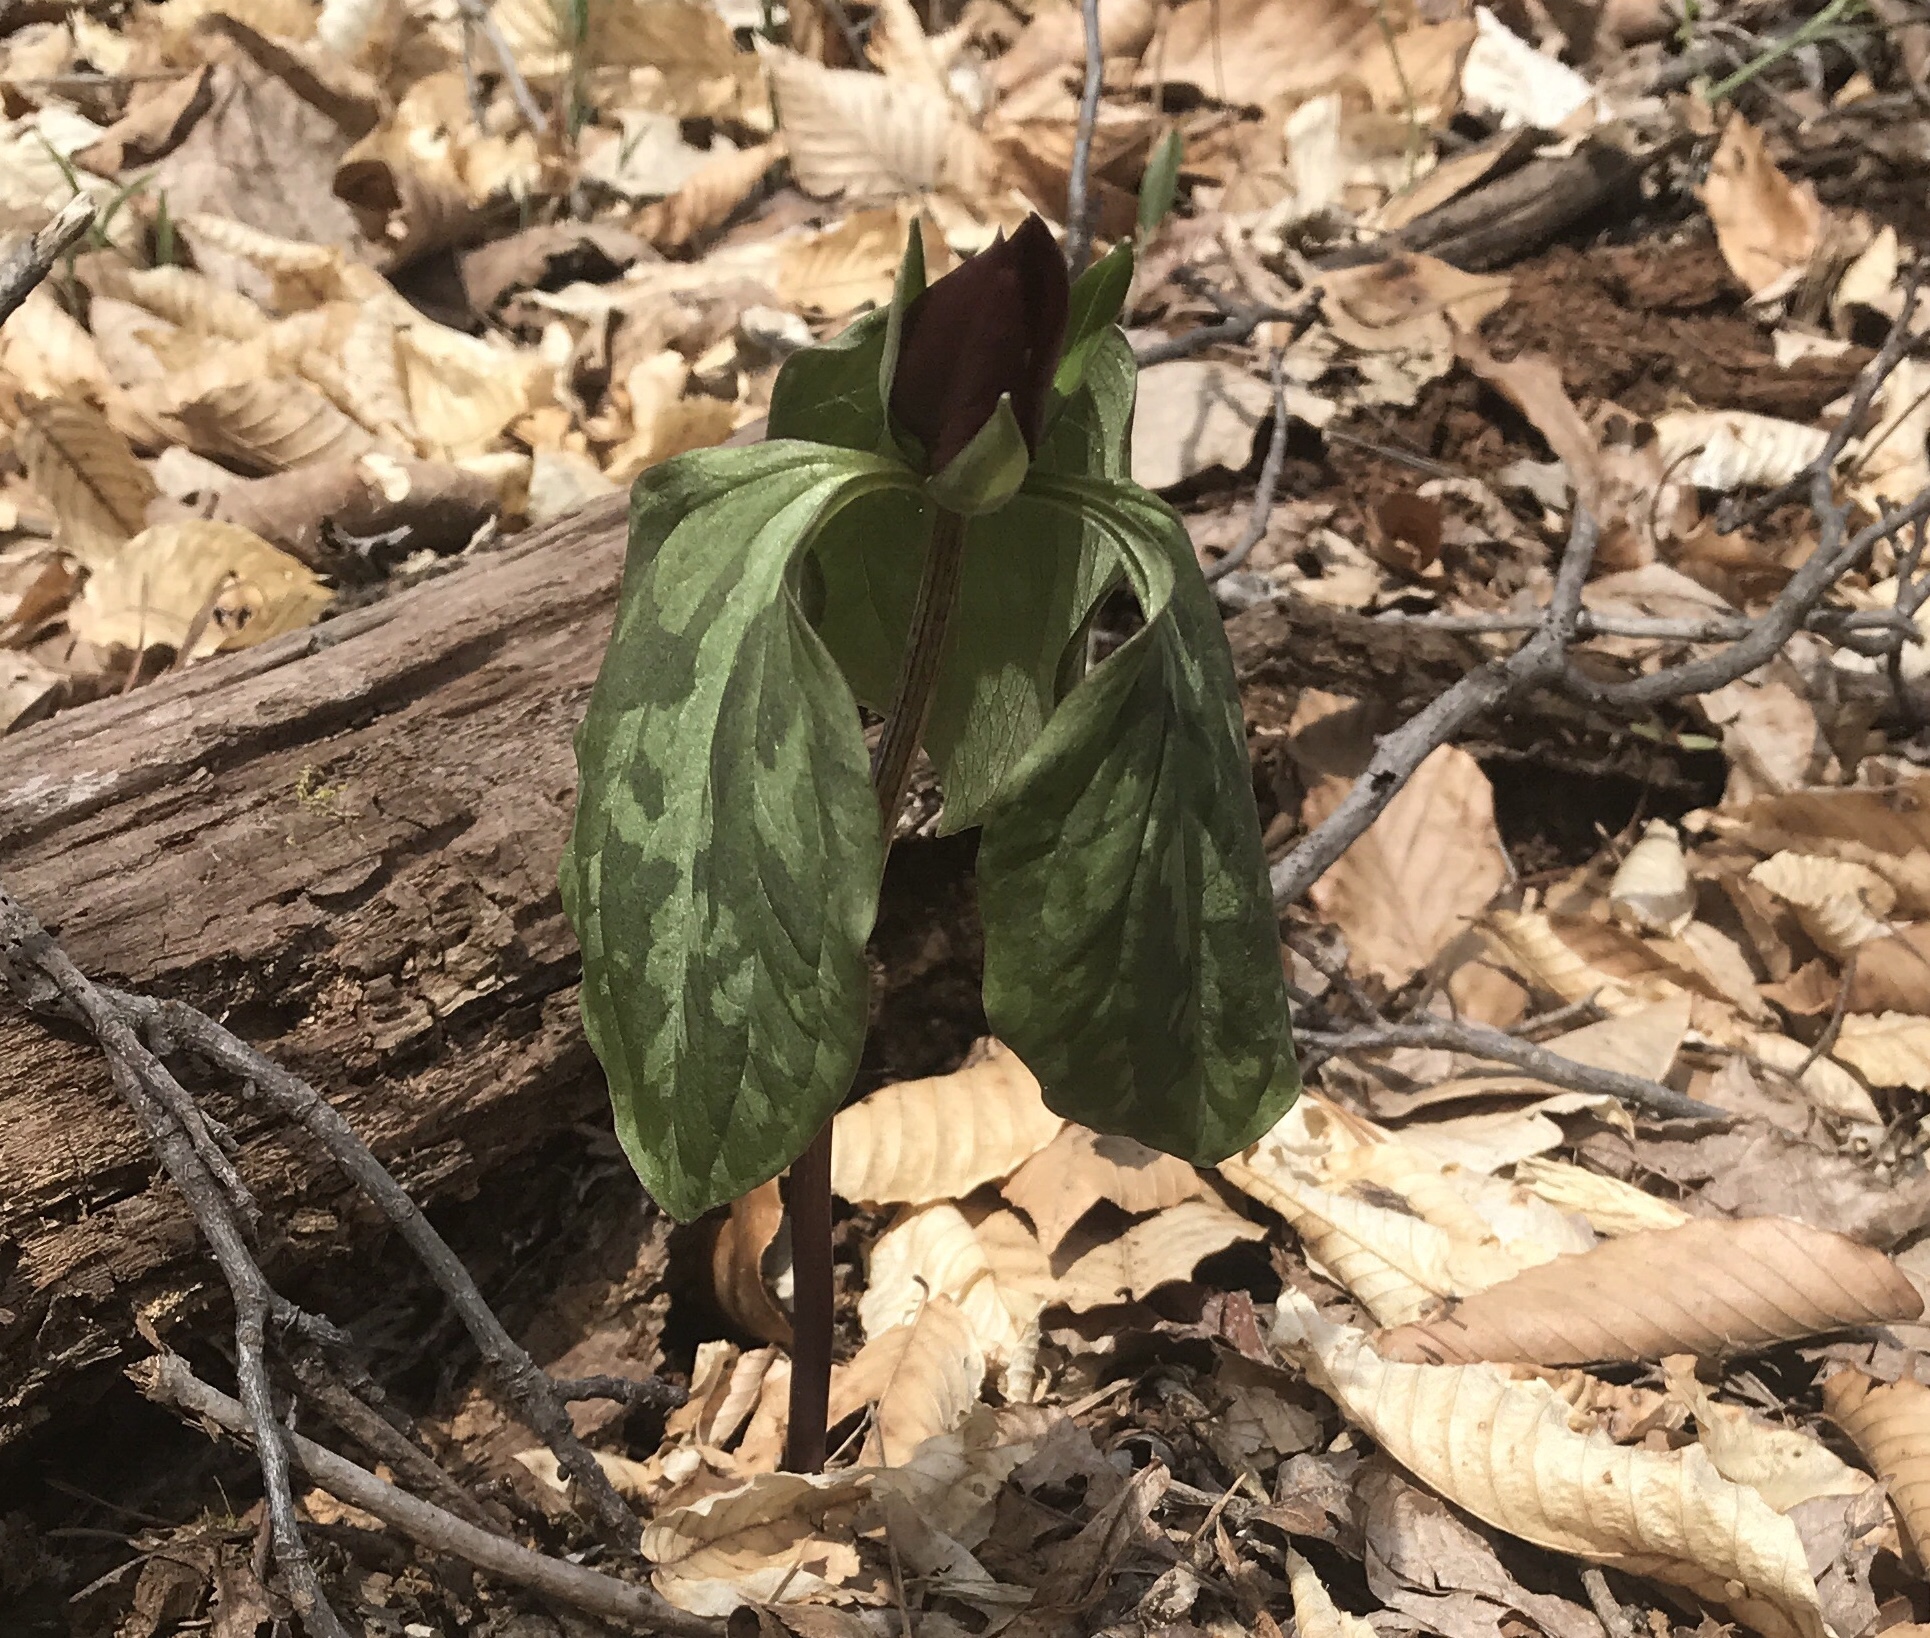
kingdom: Plantae
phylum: Tracheophyta
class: Liliopsida
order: Liliales
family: Melanthiaceae
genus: Trillium
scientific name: Trillium recurvatum
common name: Bloody butcher
